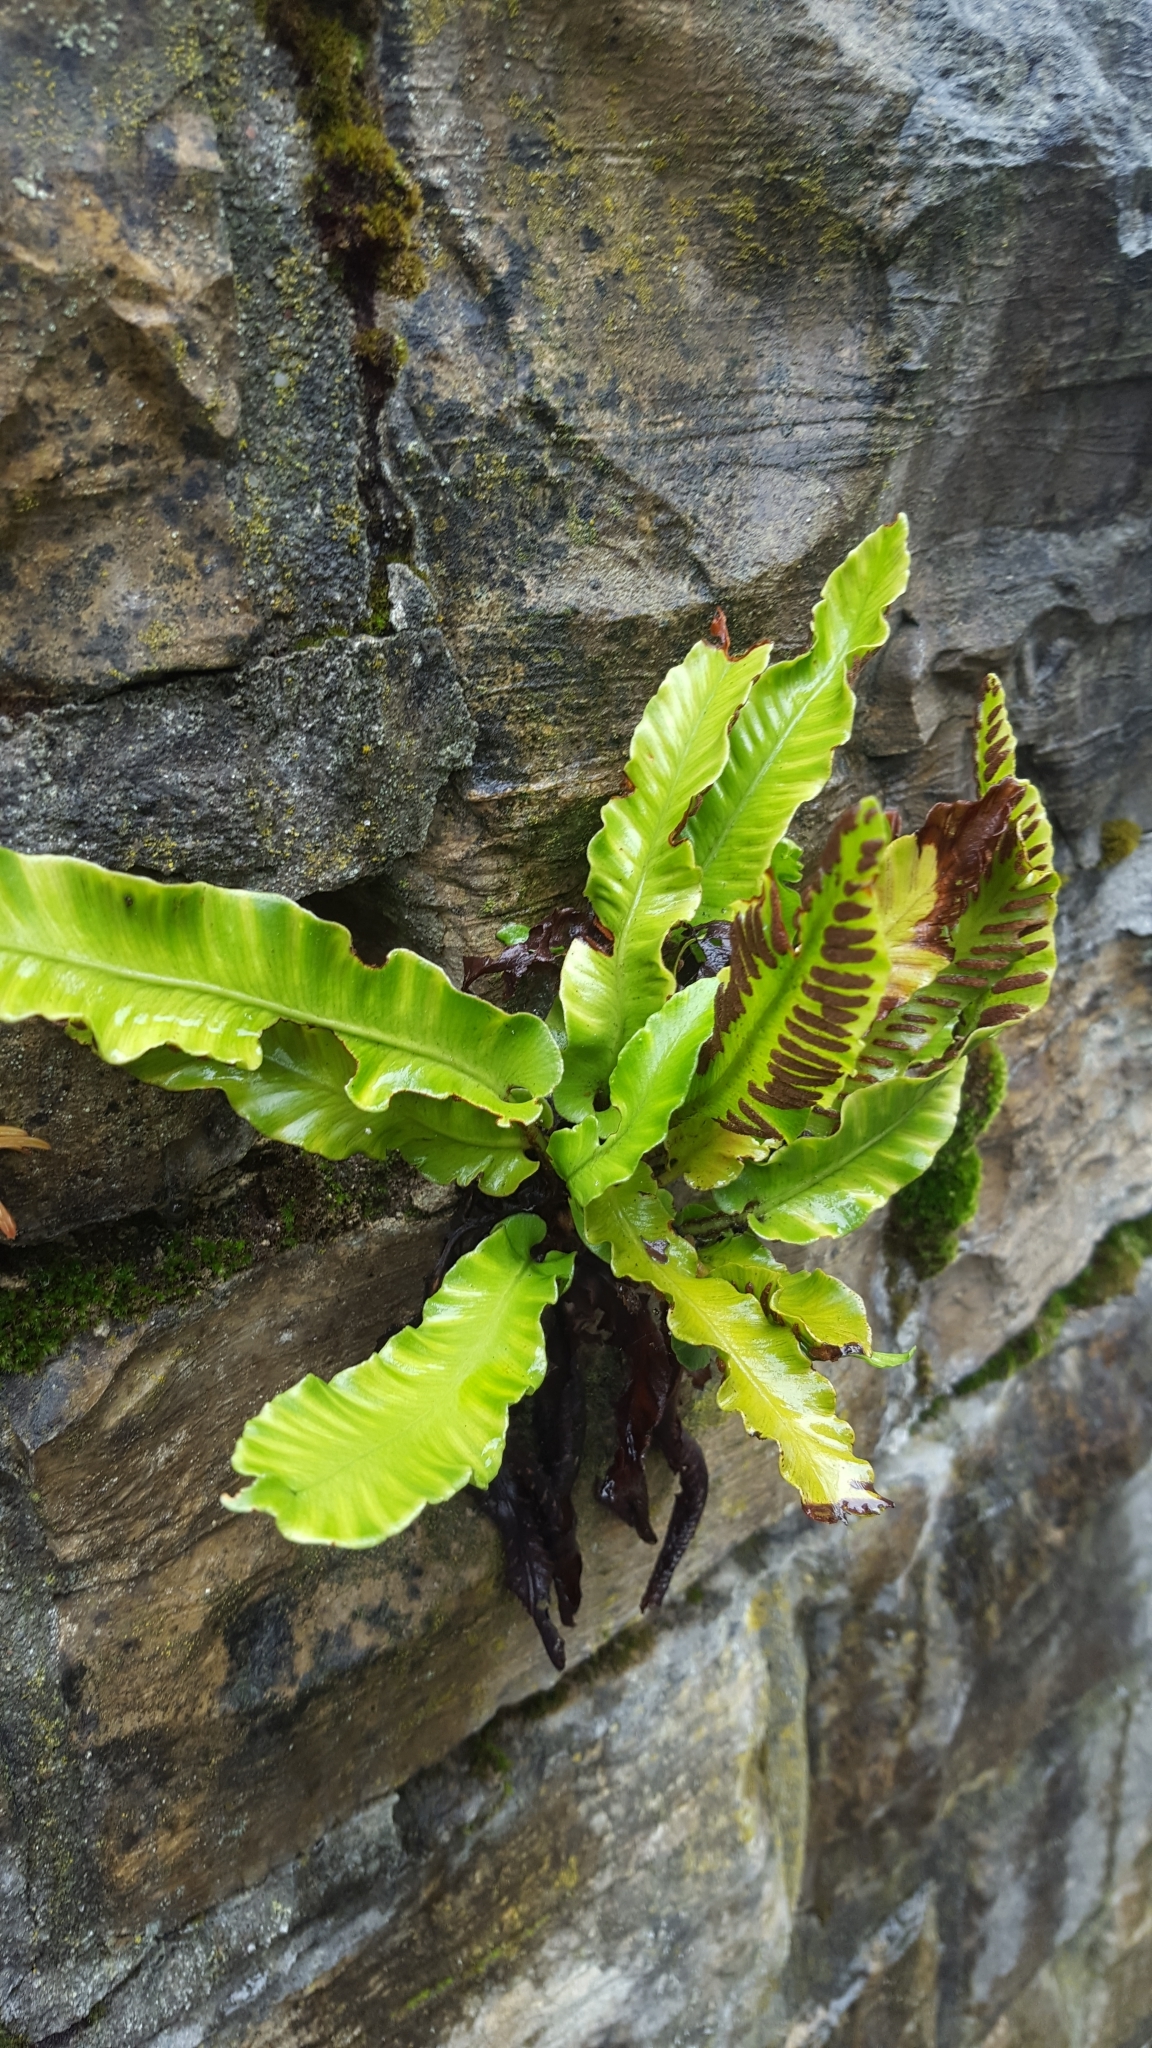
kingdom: Plantae
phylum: Tracheophyta
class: Polypodiopsida
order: Polypodiales
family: Aspleniaceae
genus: Asplenium
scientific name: Asplenium scolopendrium
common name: Hart's-tongue fern
